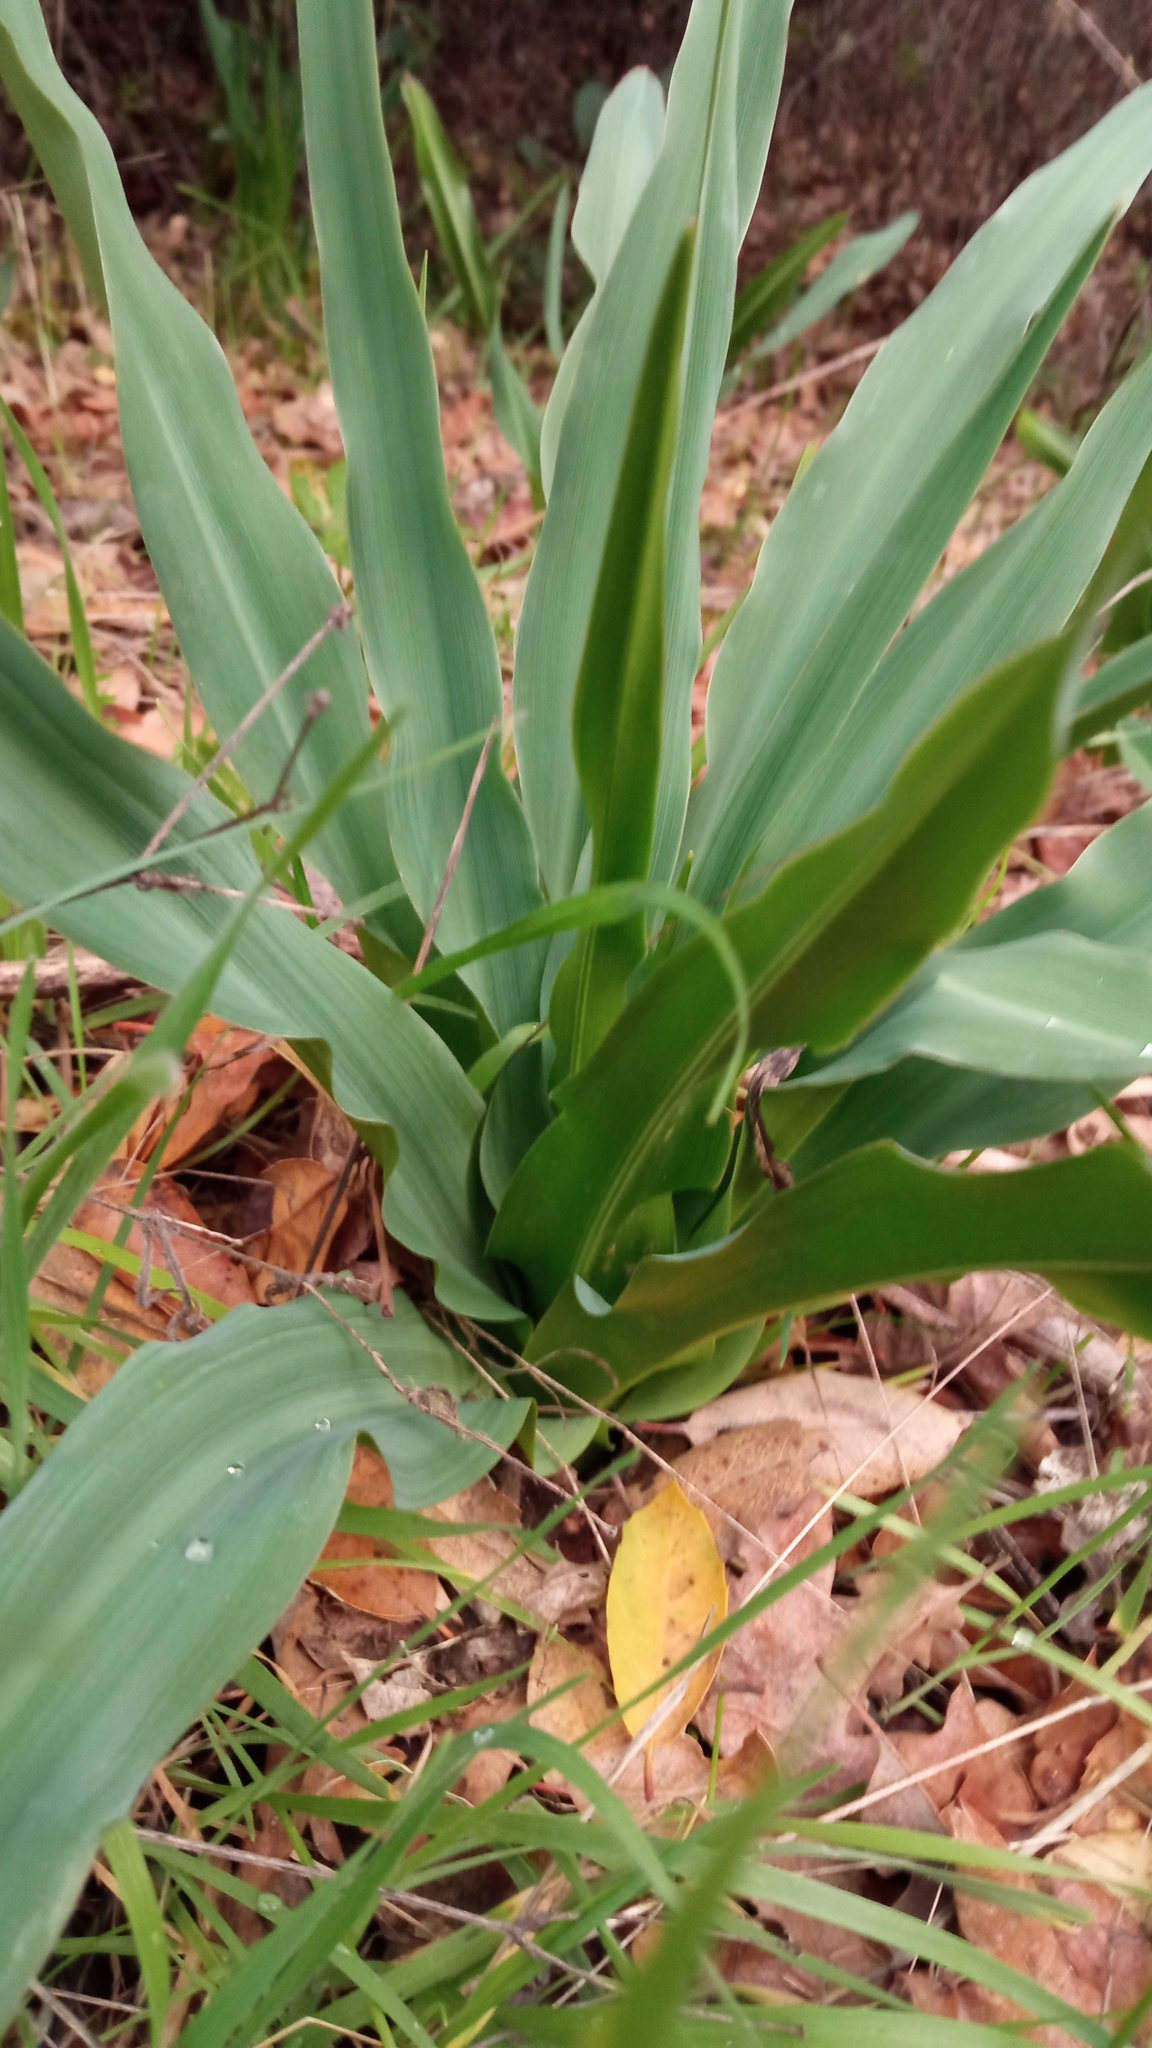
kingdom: Plantae
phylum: Tracheophyta
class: Liliopsida
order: Asparagales
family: Asparagaceae
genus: Chlorogalum
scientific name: Chlorogalum pomeridianum
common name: Amole
